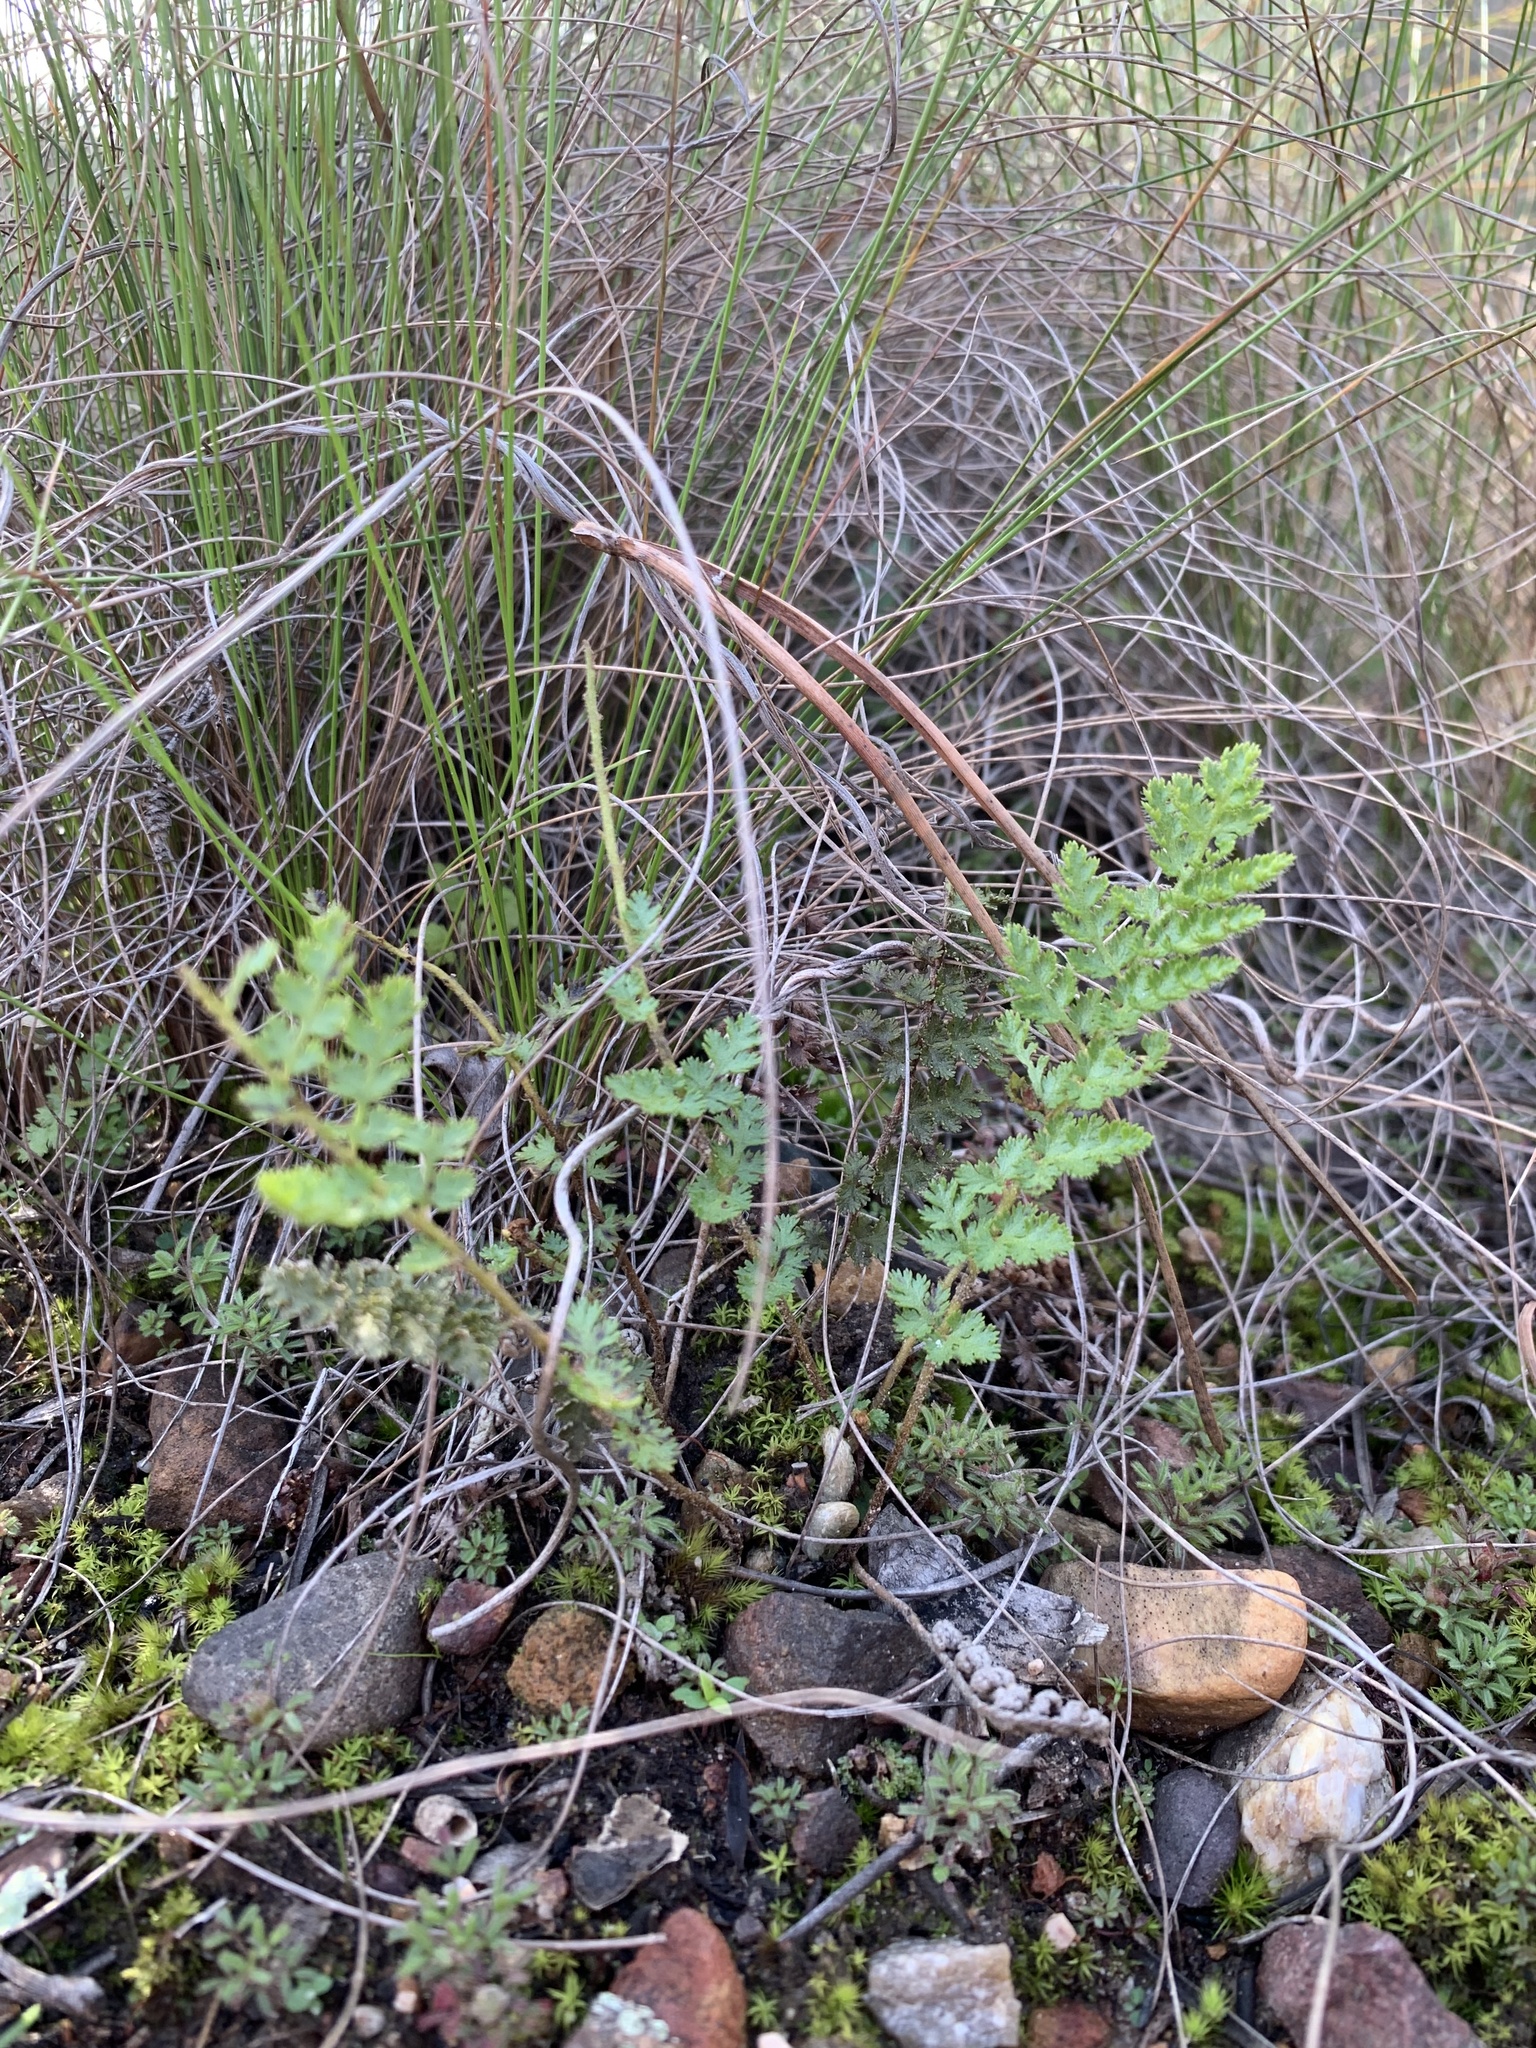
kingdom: Plantae
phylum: Tracheophyta
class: Polypodiopsida
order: Schizaeales
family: Anemiaceae
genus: Anemia
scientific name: Anemia caffrorum
